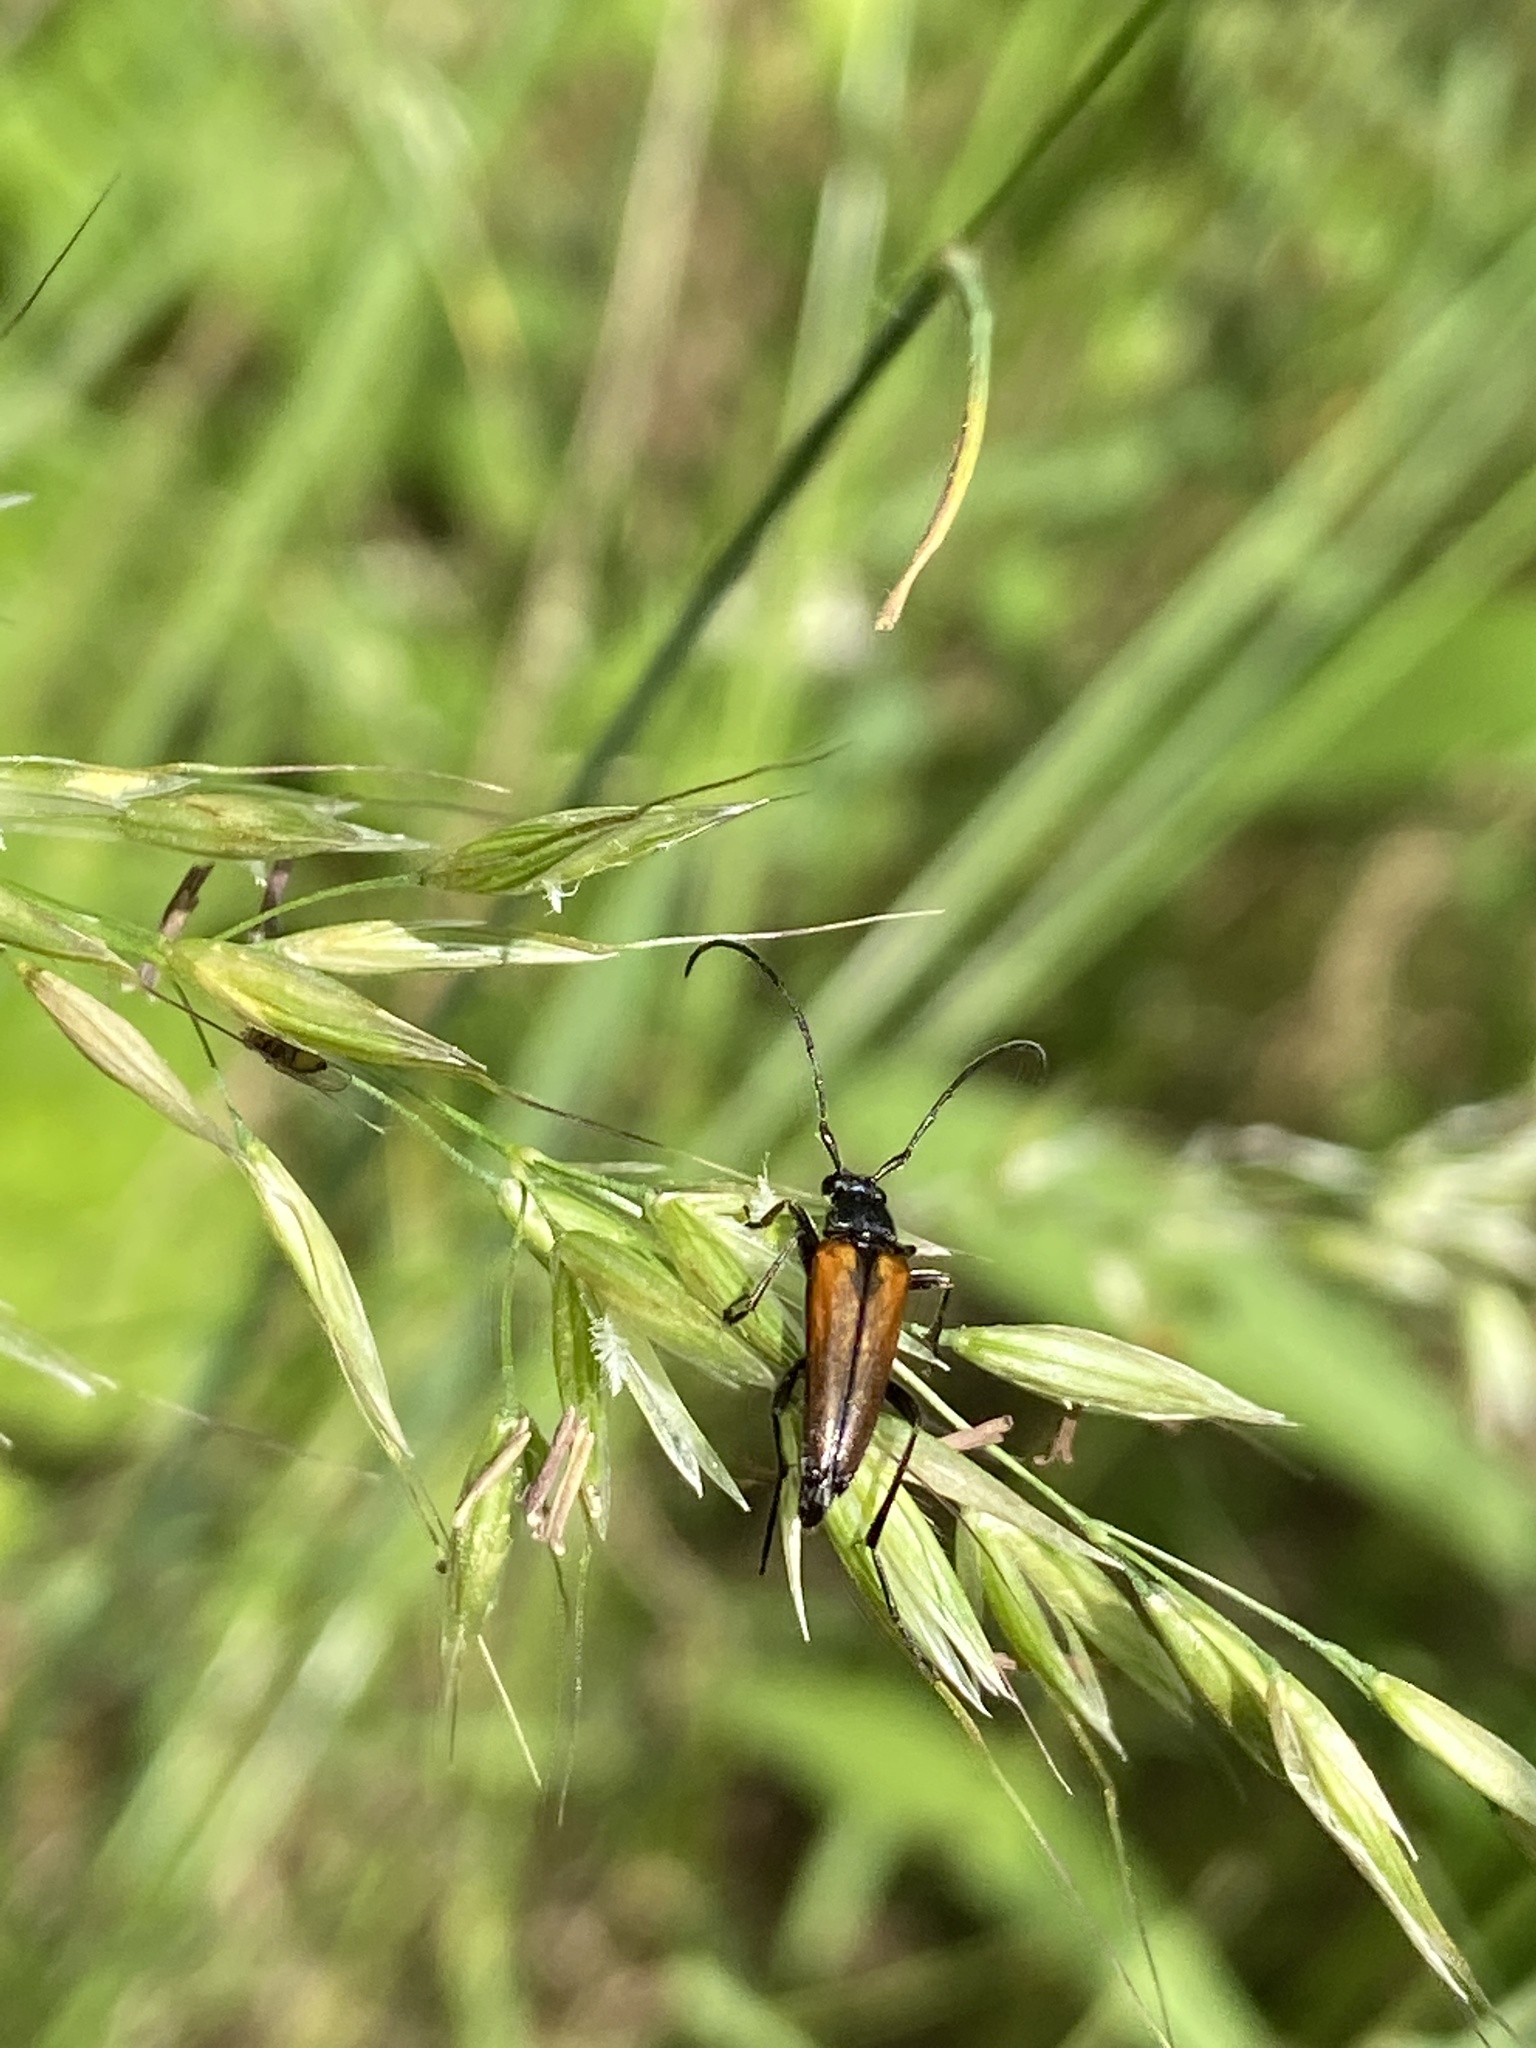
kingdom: Animalia
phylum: Arthropoda
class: Insecta
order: Coleoptera
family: Cerambycidae
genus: Stenurella
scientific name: Stenurella melanura
